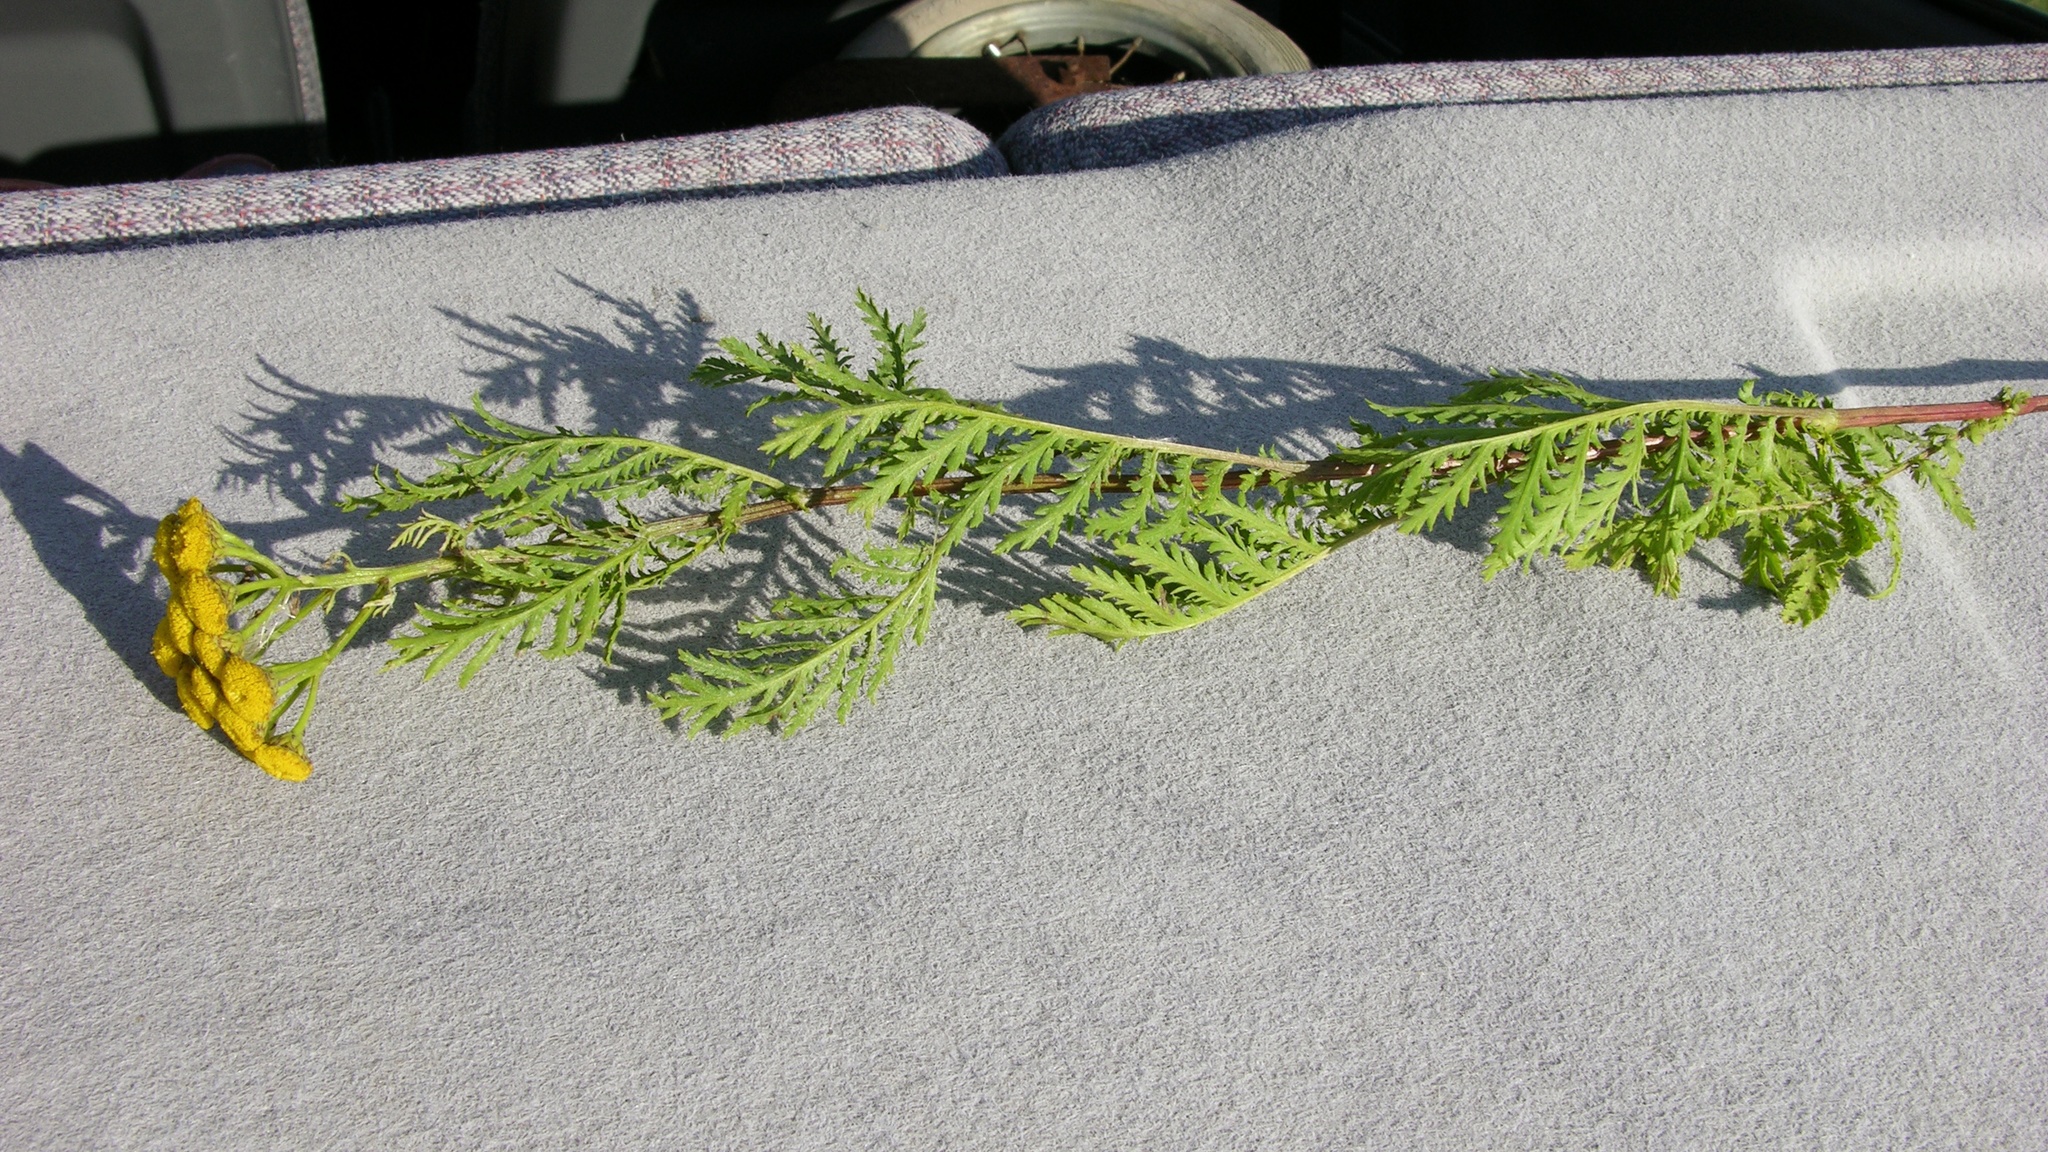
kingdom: Plantae
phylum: Tracheophyta
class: Magnoliopsida
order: Asterales
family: Asteraceae
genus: Tanacetum
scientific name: Tanacetum vulgare
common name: Common tansy
